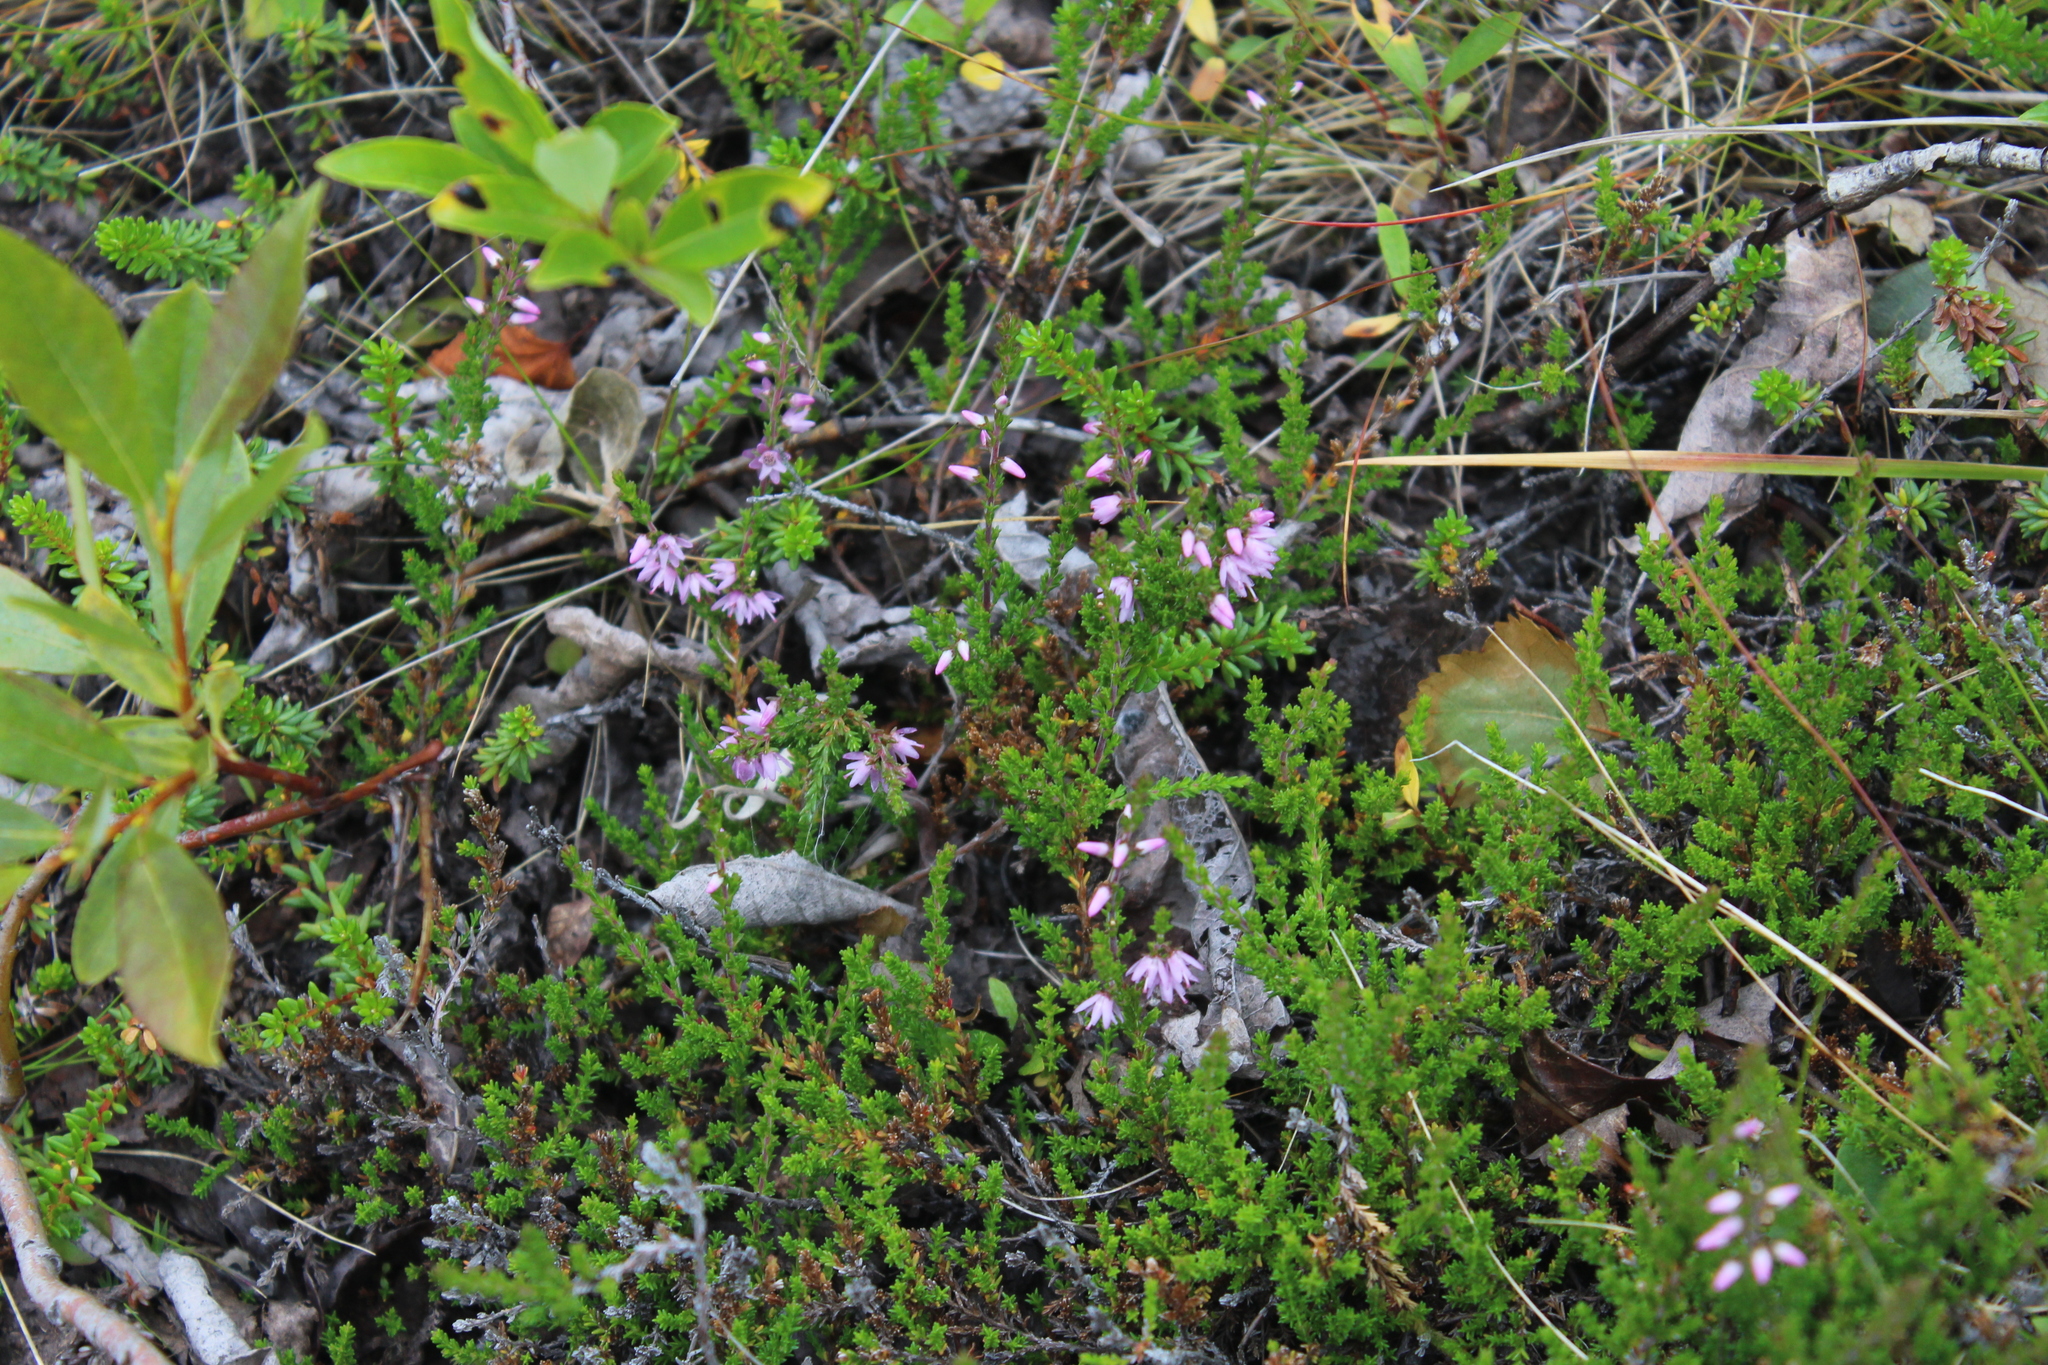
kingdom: Plantae
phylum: Tracheophyta
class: Magnoliopsida
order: Ericales
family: Ericaceae
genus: Calluna
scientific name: Calluna vulgaris
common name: Heather
